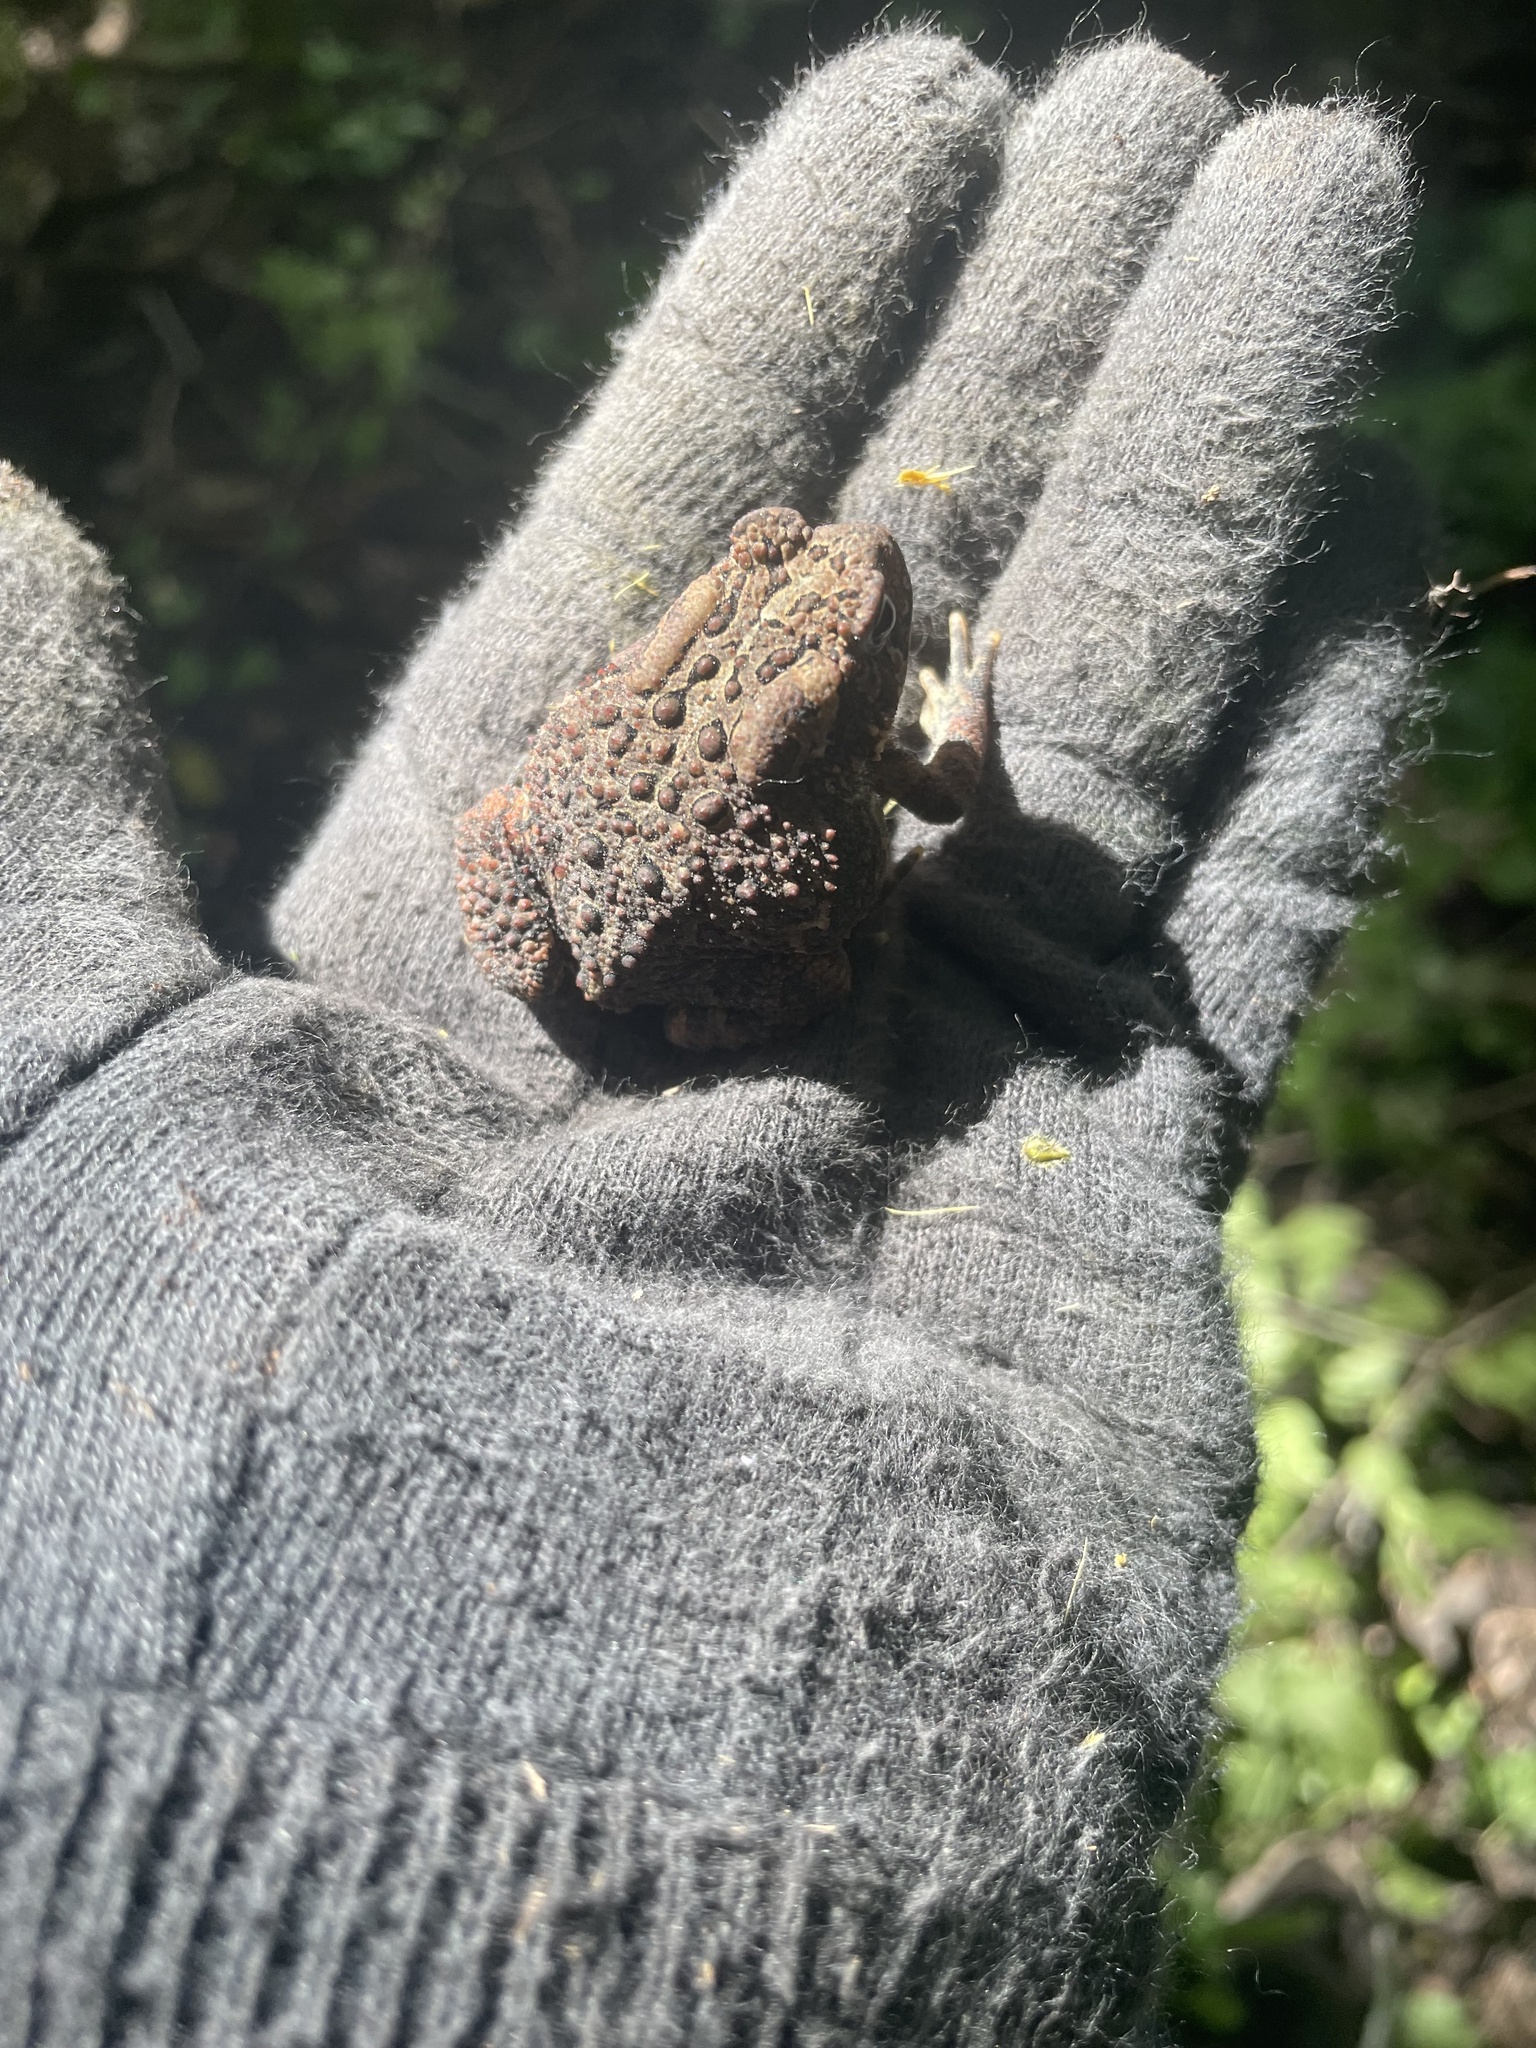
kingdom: Animalia
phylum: Chordata
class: Amphibia
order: Anura
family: Bufonidae
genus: Anaxyrus
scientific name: Anaxyrus americanus
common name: American toad
